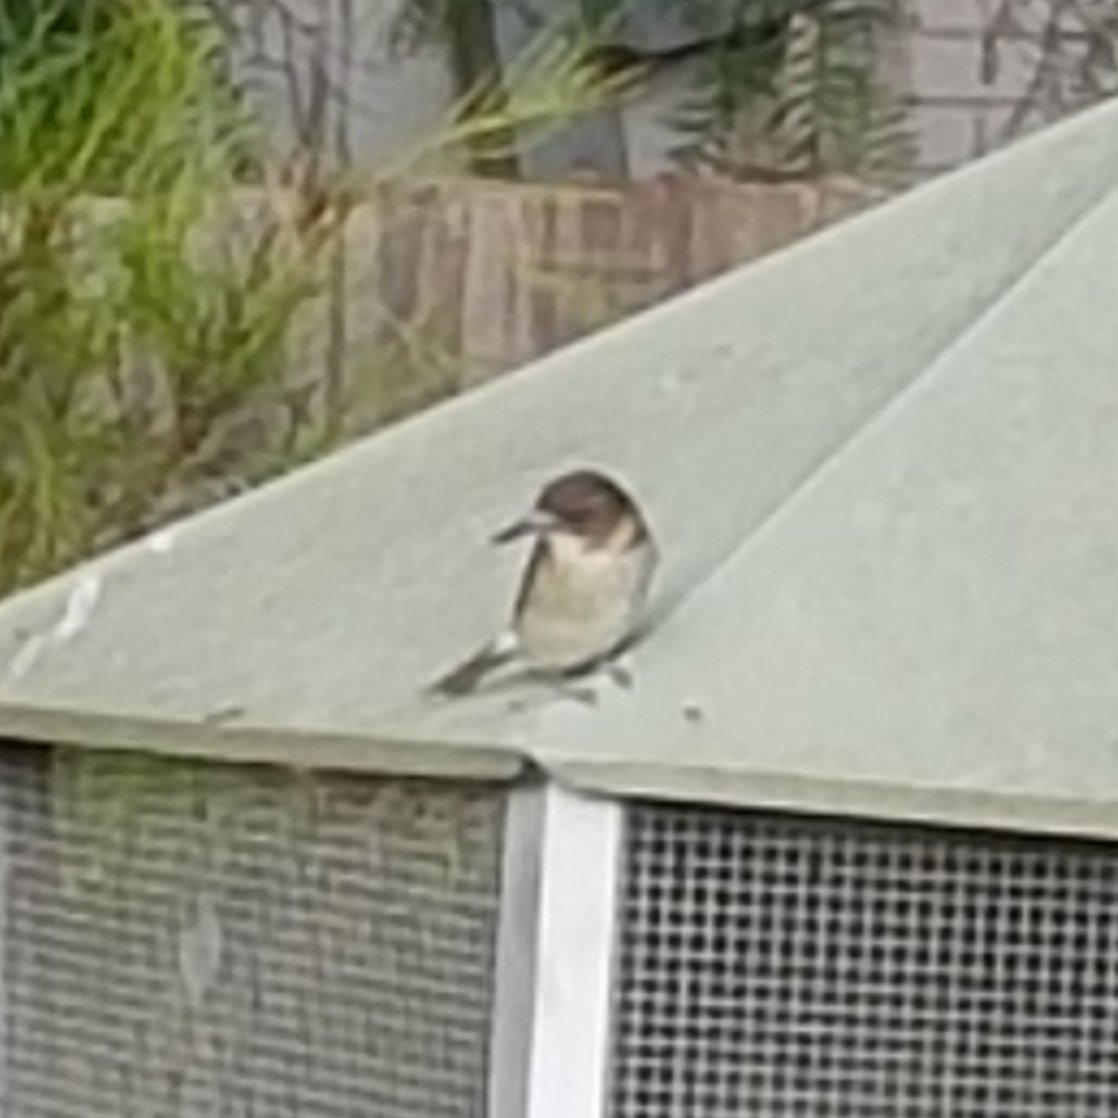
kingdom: Animalia
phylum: Chordata
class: Aves
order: Passeriformes
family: Cracticidae
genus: Cracticus
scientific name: Cracticus torquatus
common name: Grey butcherbird
